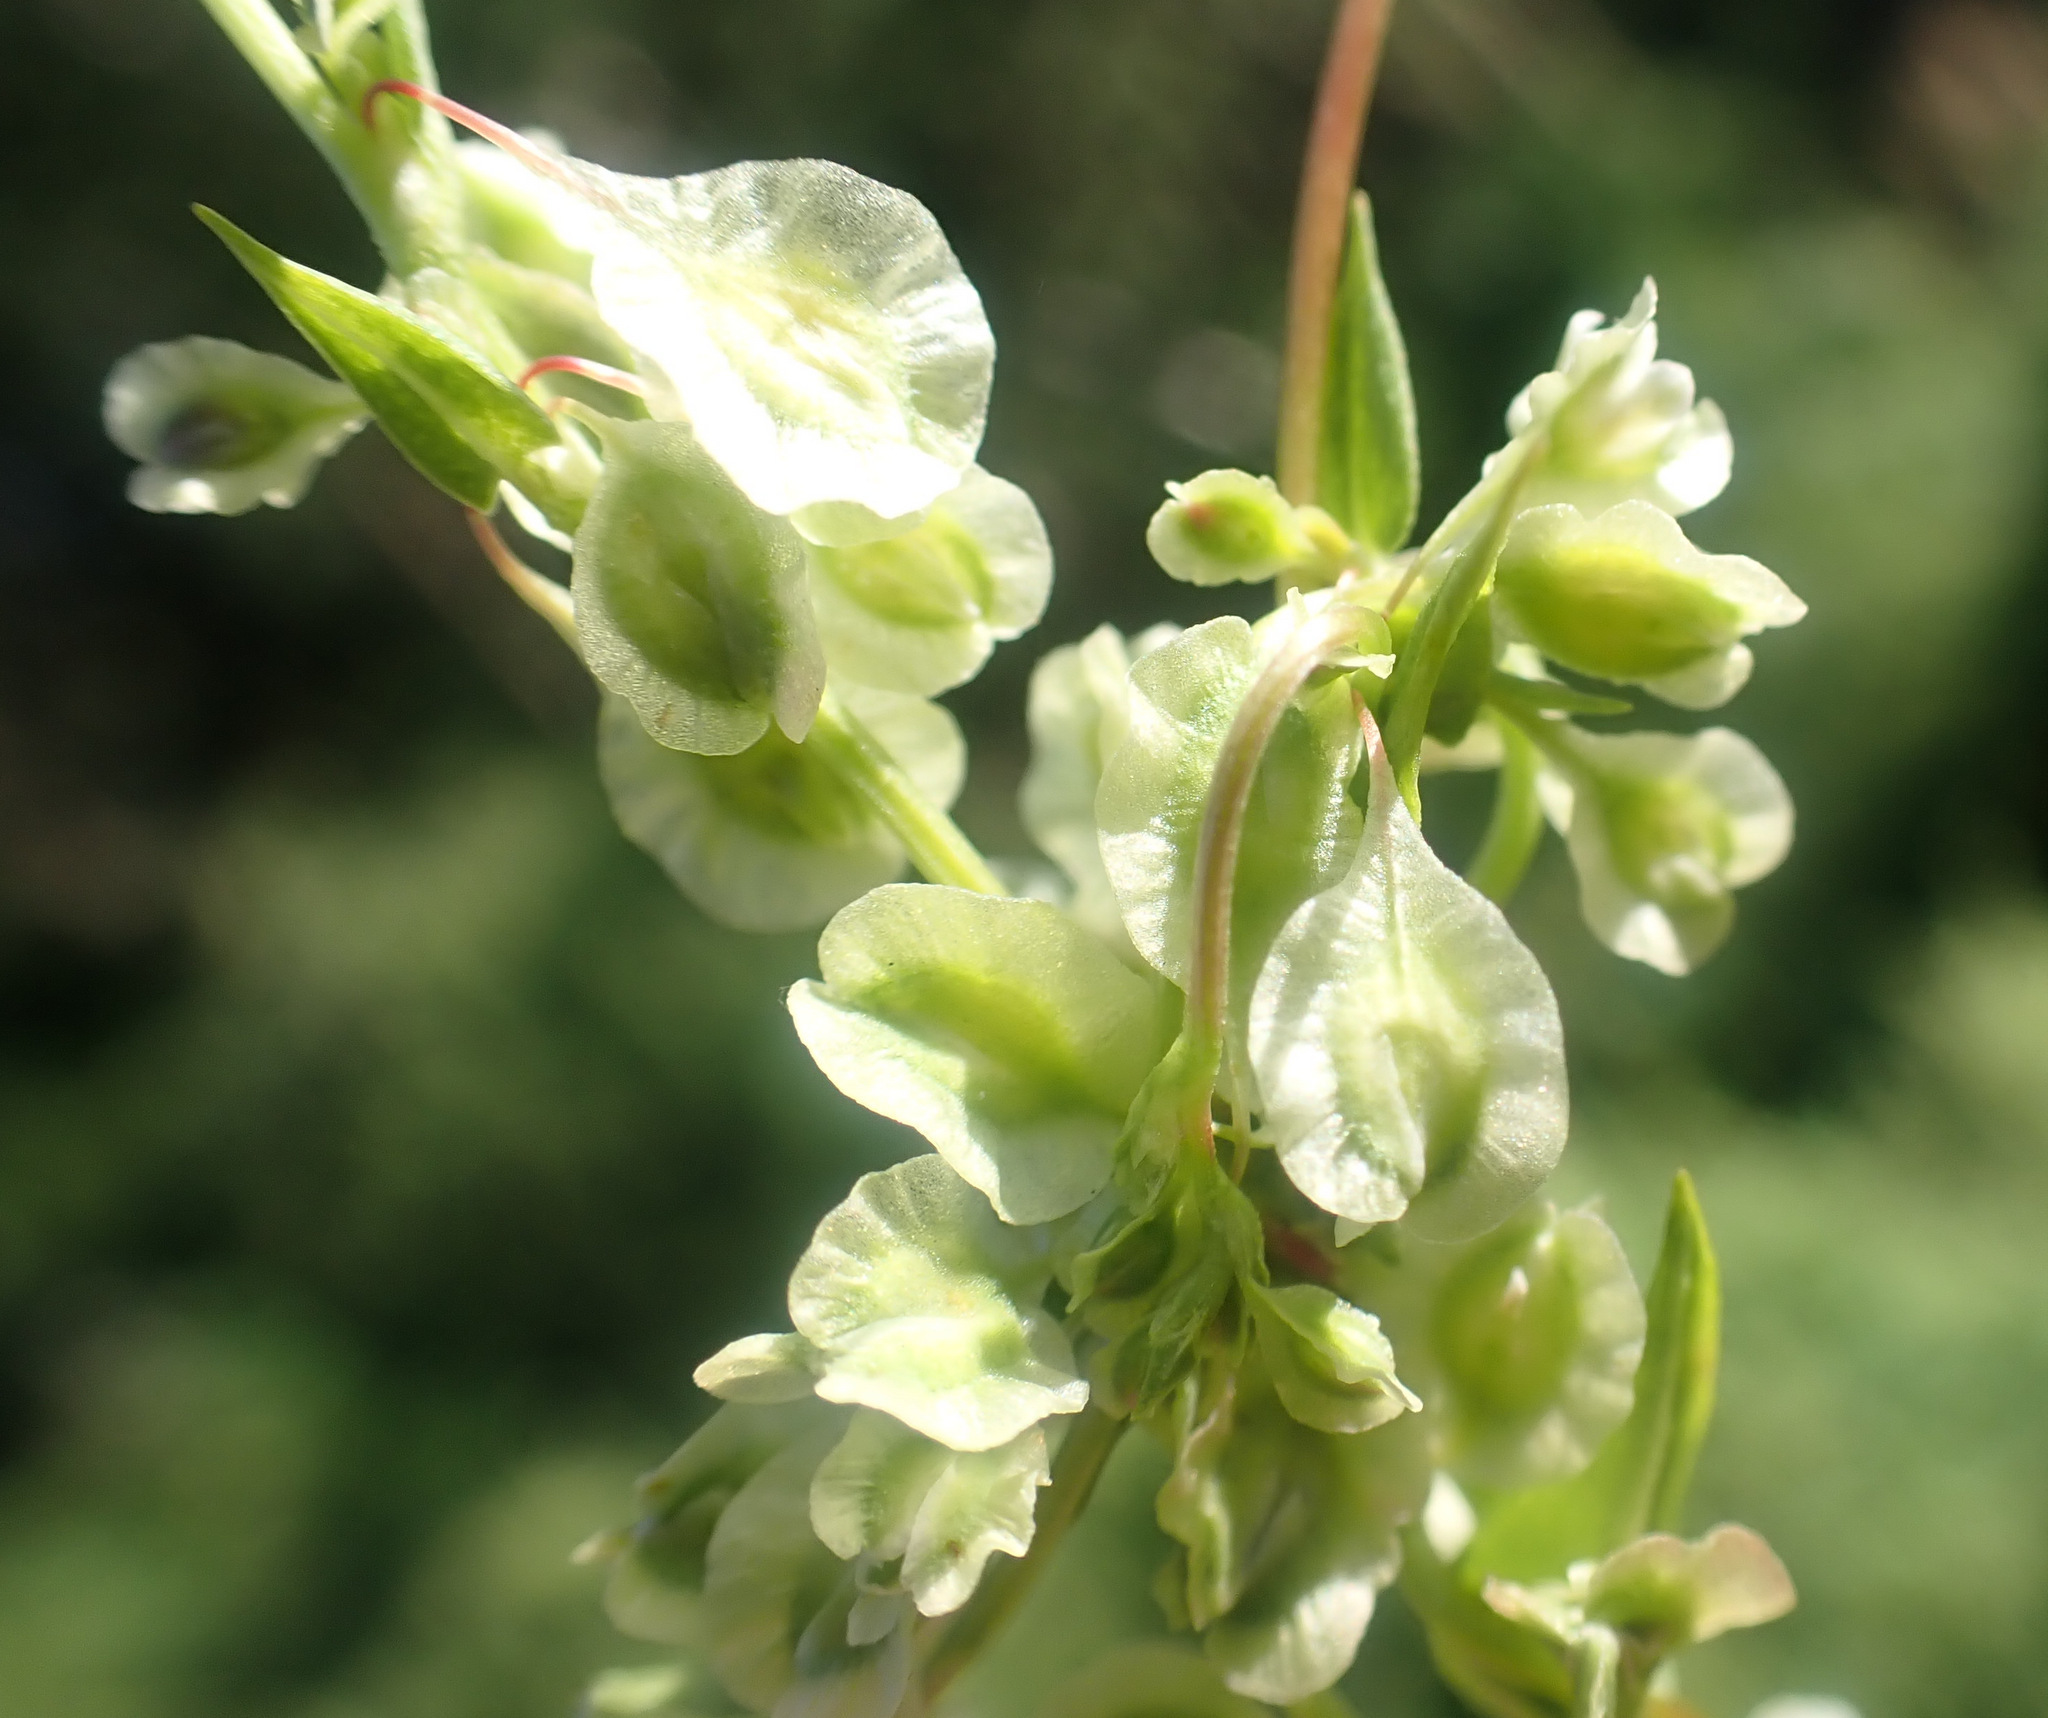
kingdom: Plantae
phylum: Tracheophyta
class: Magnoliopsida
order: Caryophyllales
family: Polygonaceae
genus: Fallopia
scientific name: Fallopia dumetorum
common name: Copse-bindweed
